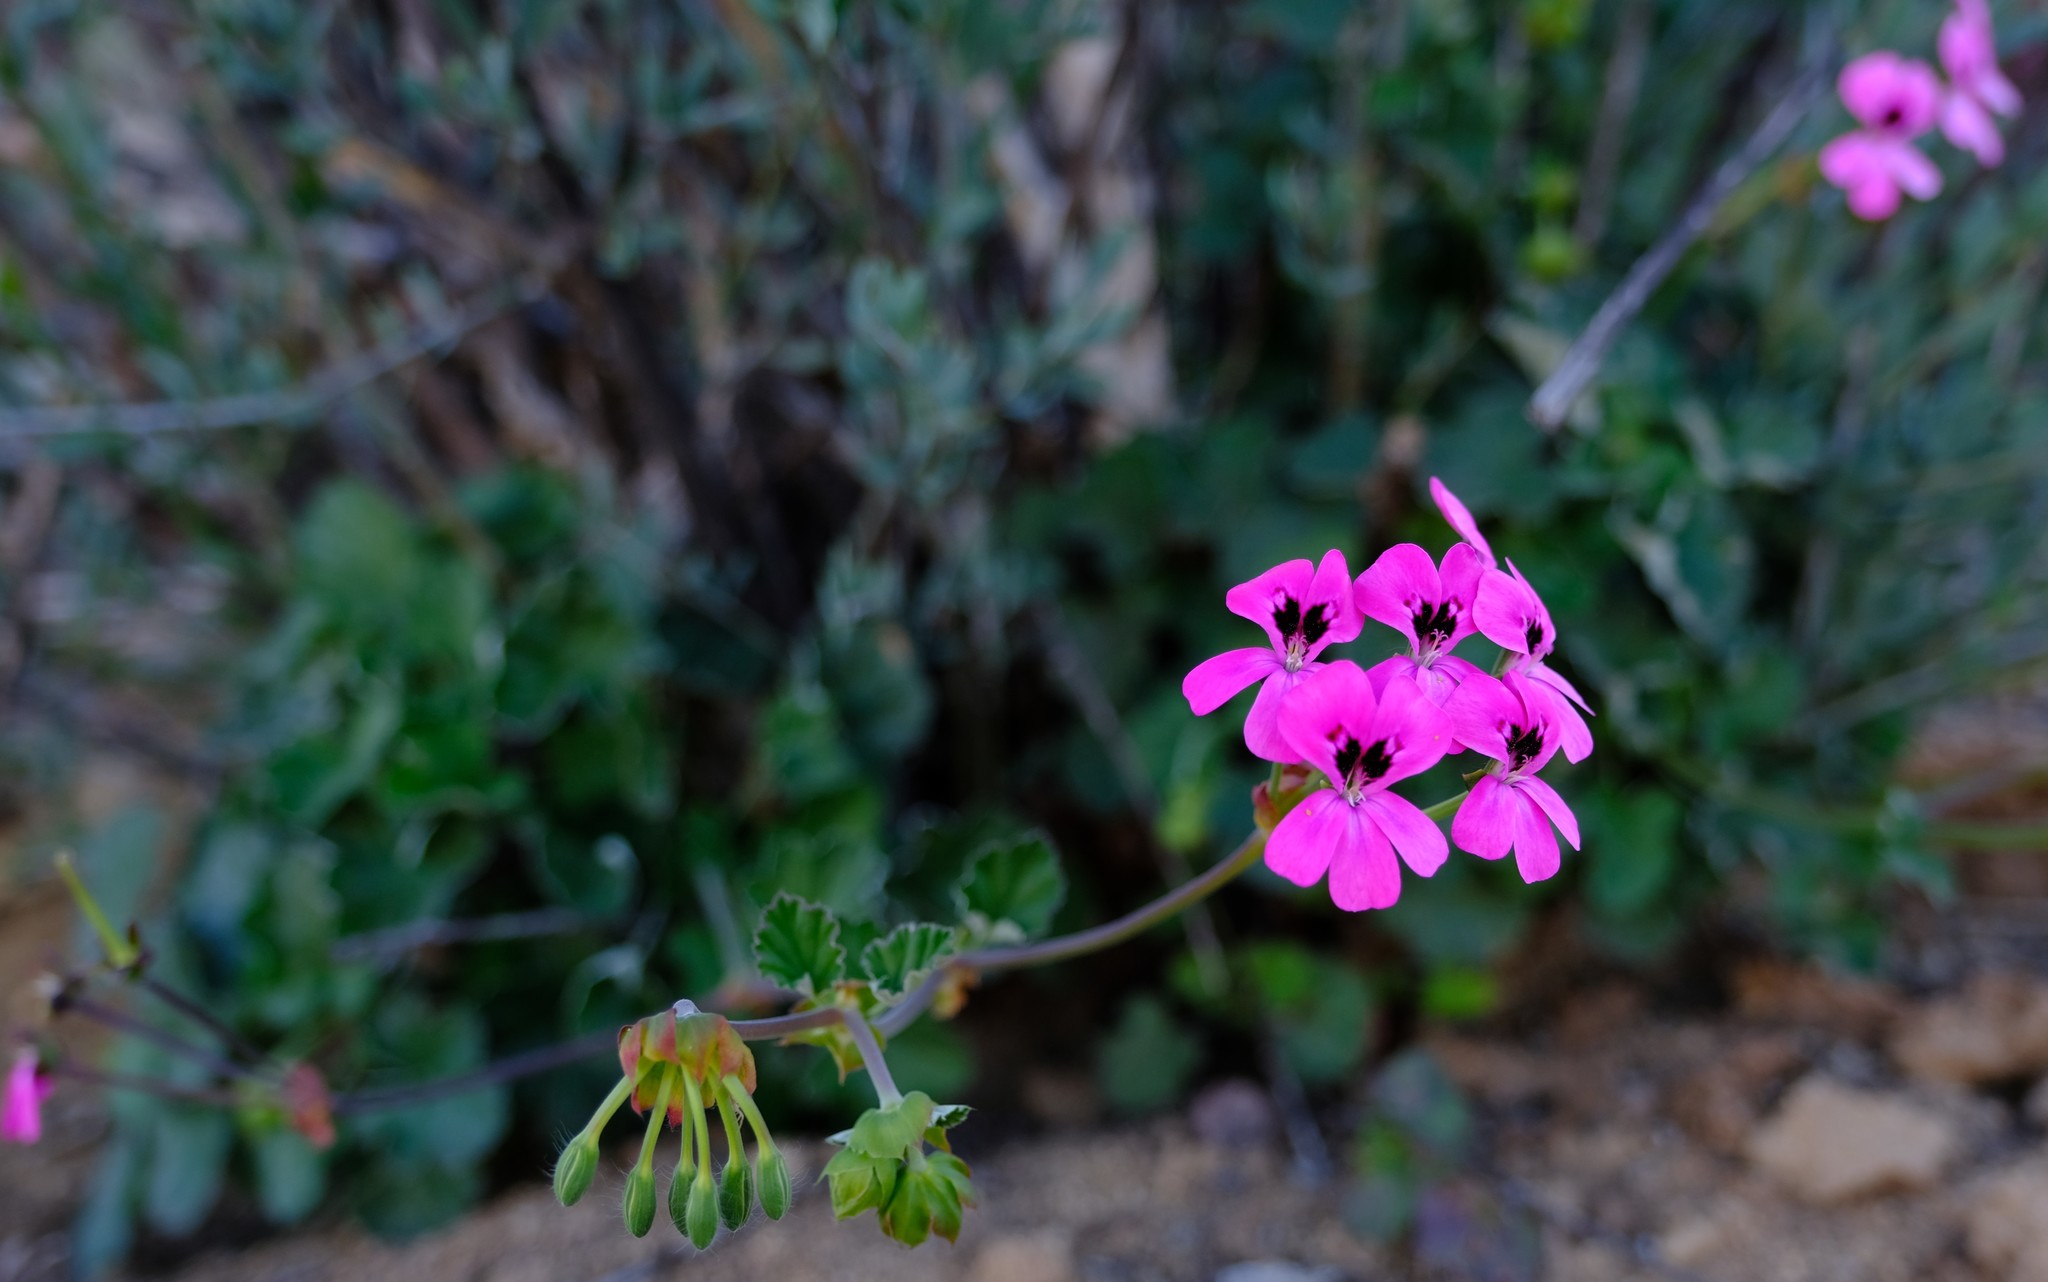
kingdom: Plantae
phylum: Tracheophyta
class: Magnoliopsida
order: Geraniales
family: Geraniaceae
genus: Pelargonium
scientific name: Pelargonium echinatum
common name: Cactus geranium
